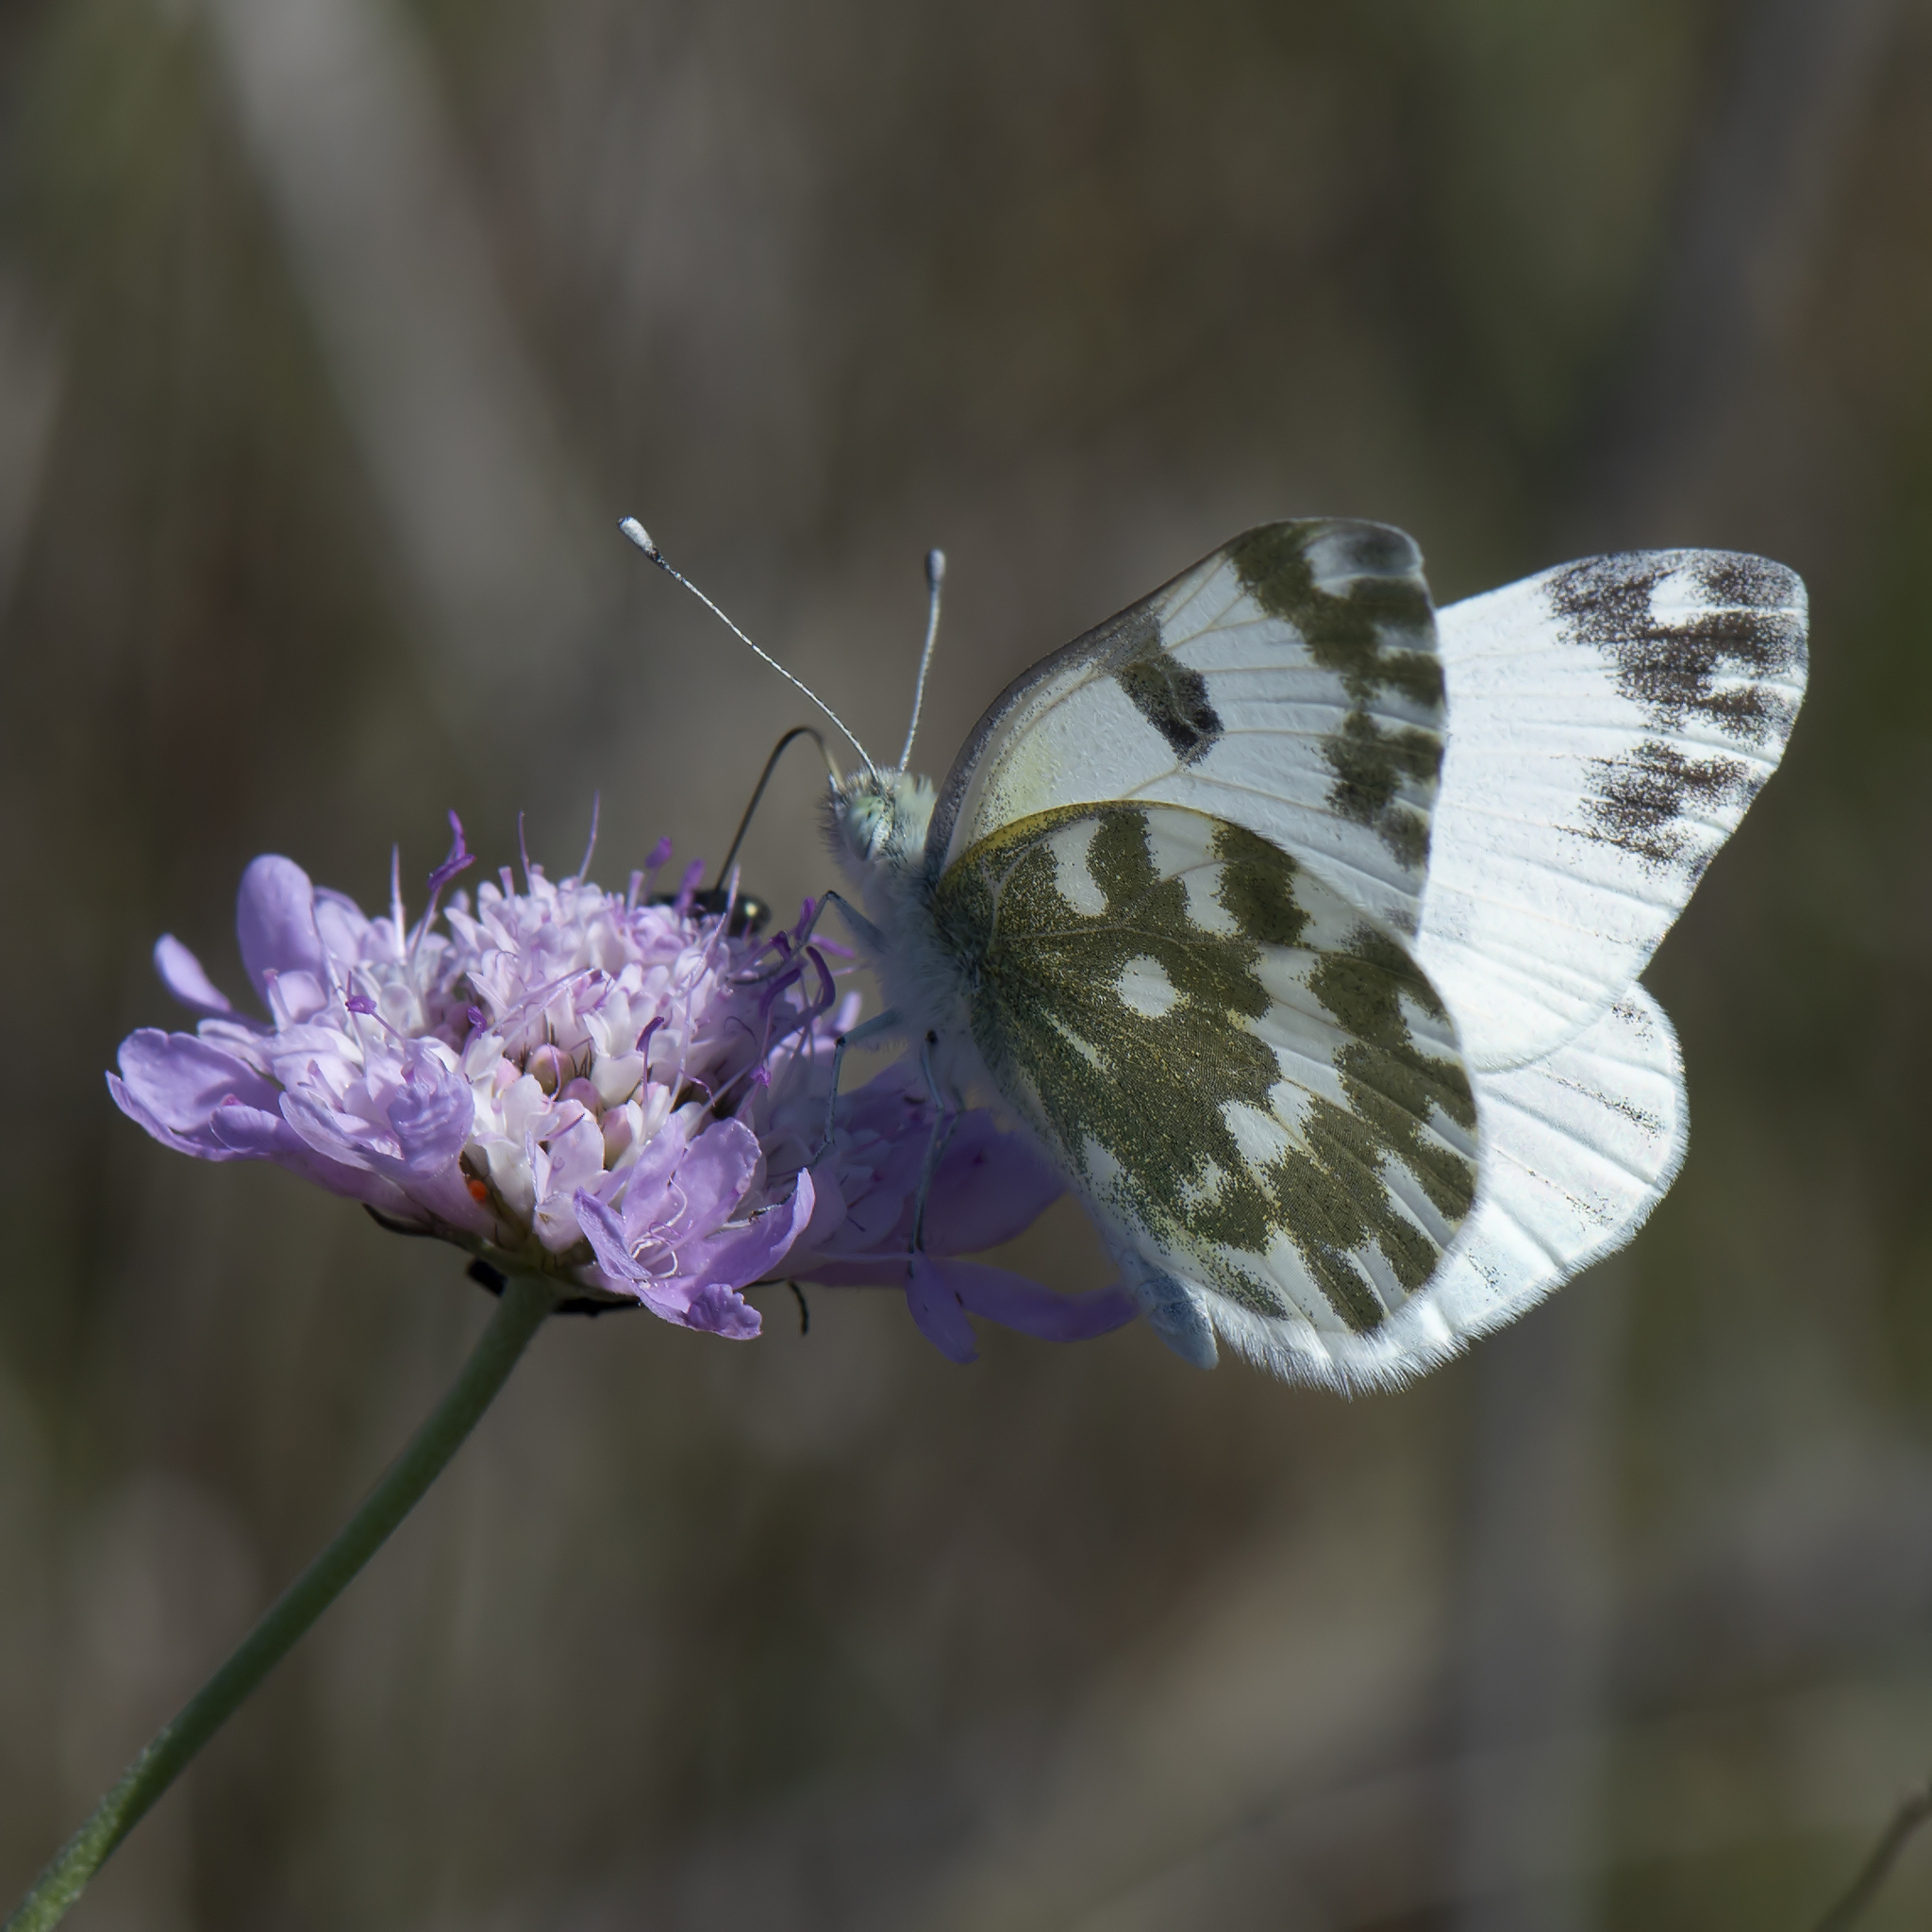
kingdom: Animalia
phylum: Arthropoda
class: Insecta
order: Lepidoptera
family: Pieridae
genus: Pontia
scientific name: Pontia edusa
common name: Eastern bath white
